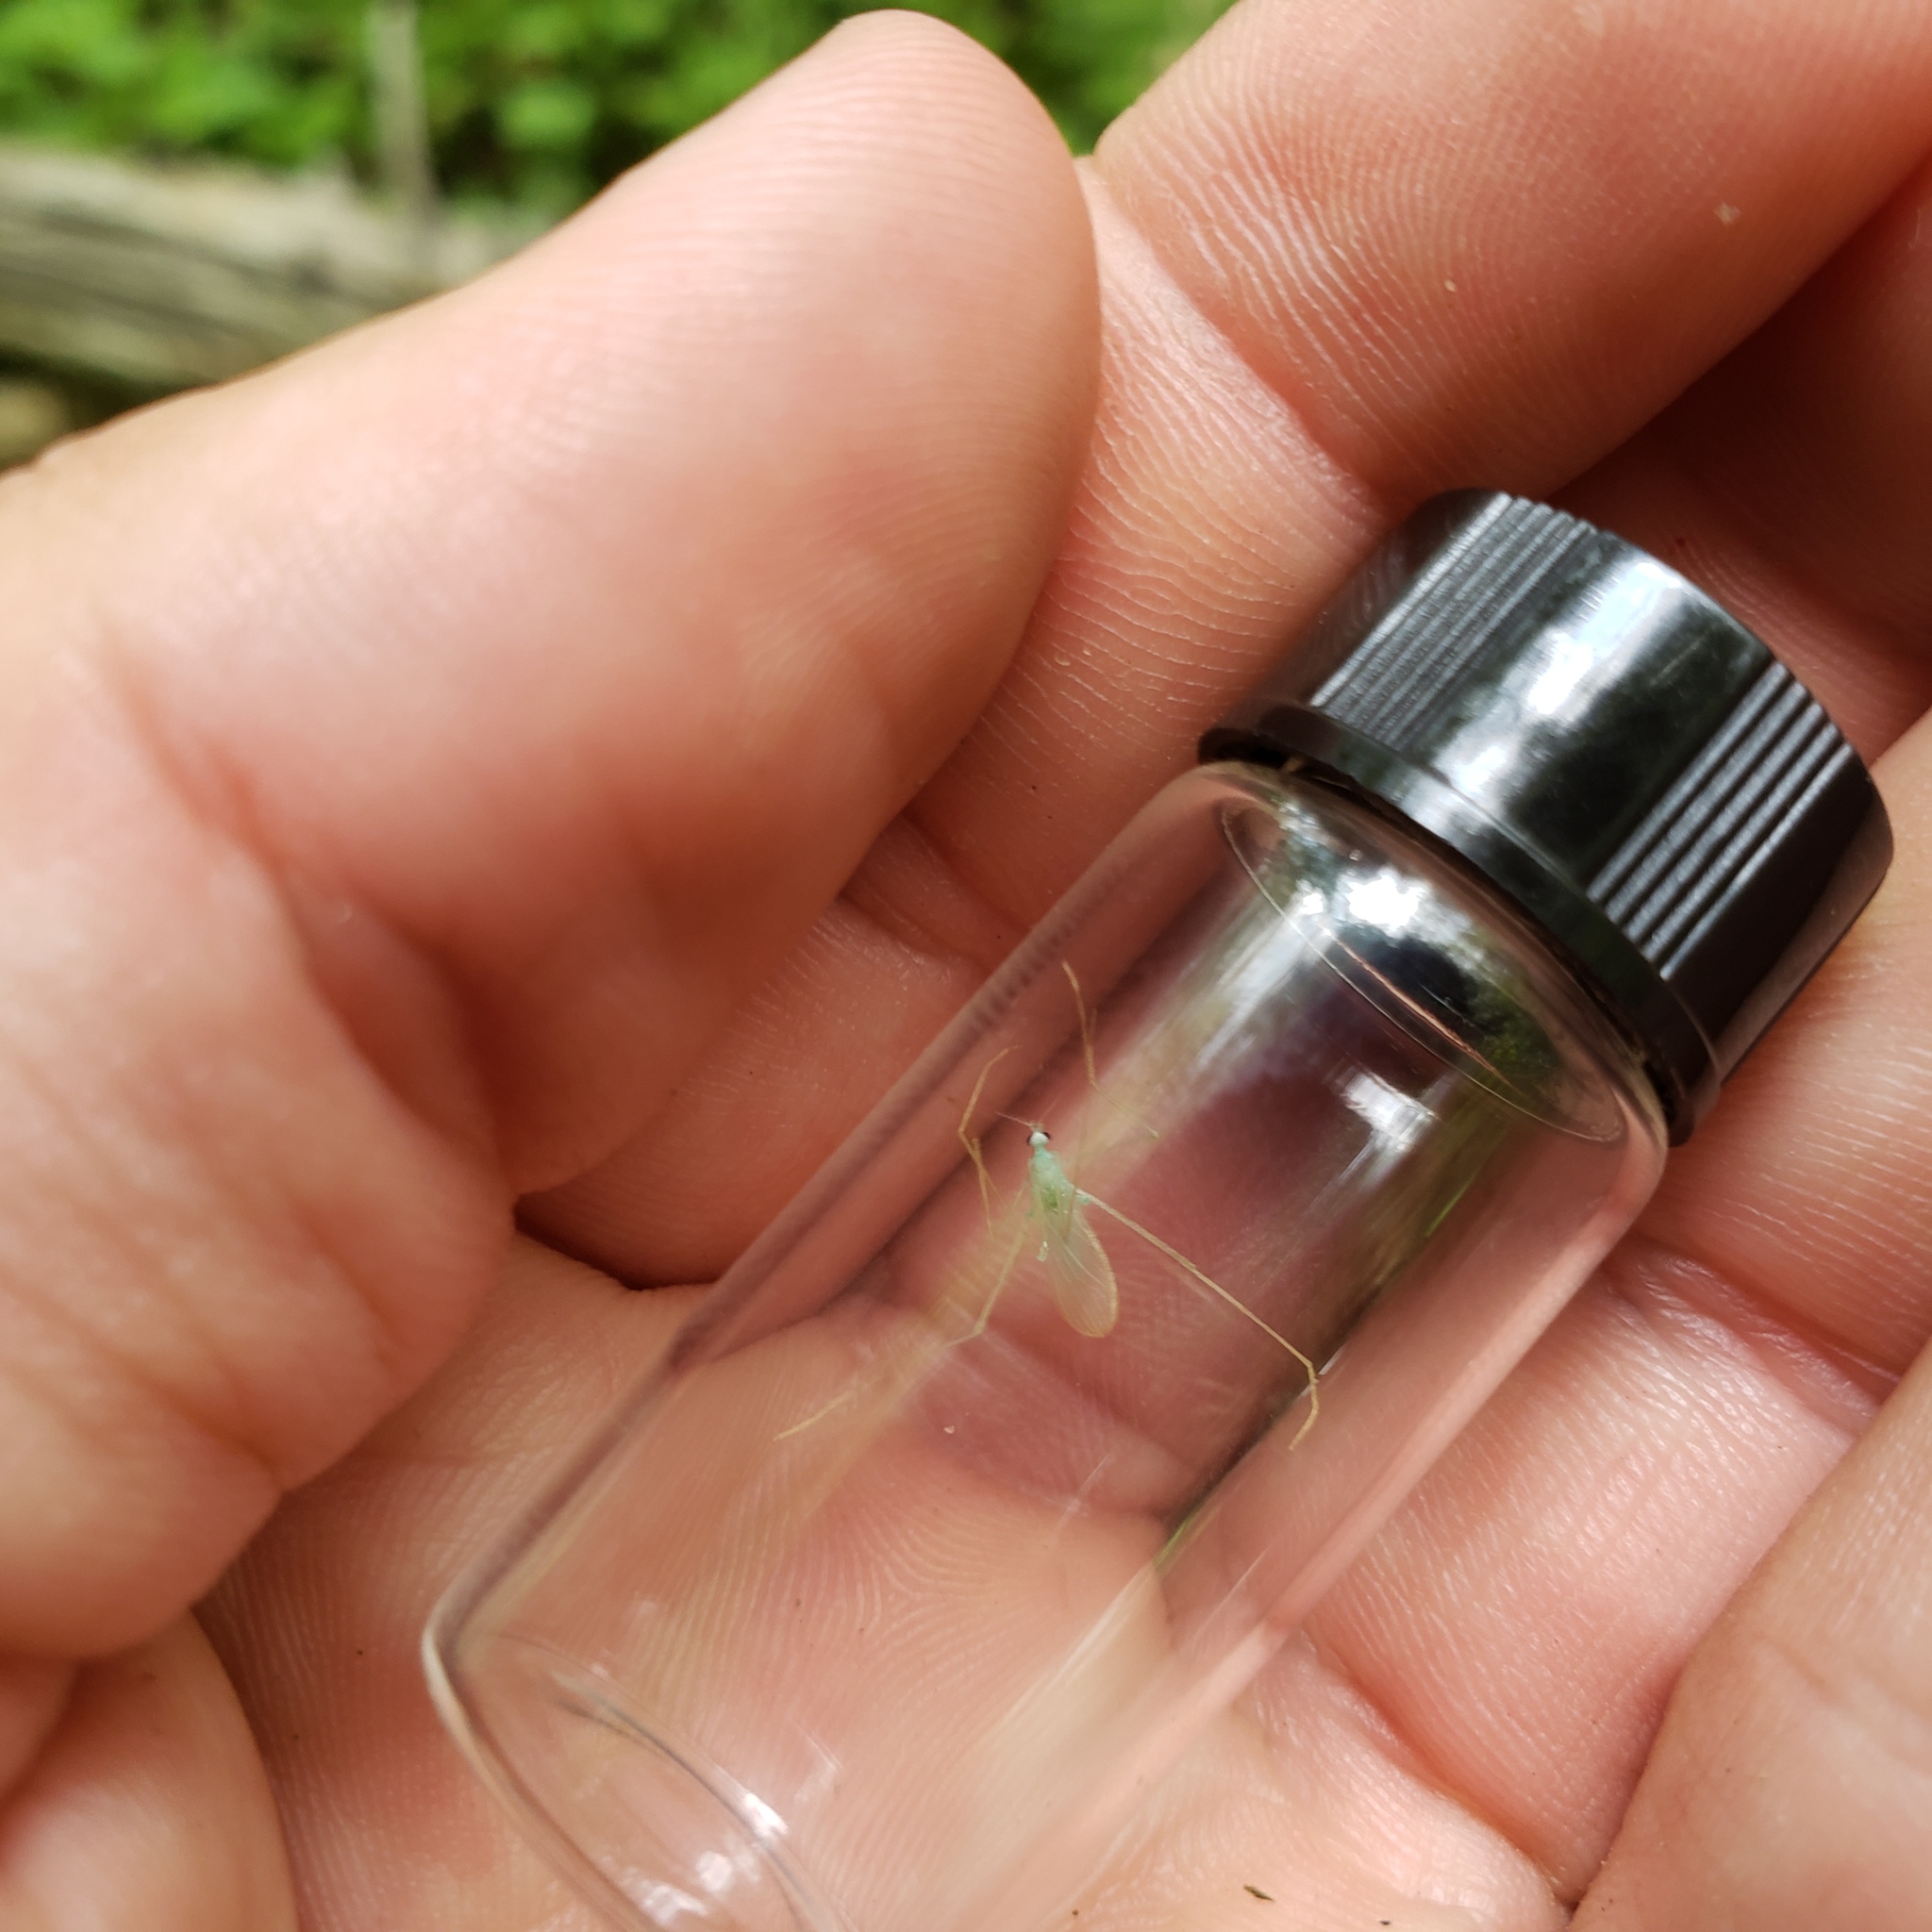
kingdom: Animalia
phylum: Arthropoda
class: Insecta
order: Diptera
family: Limoniidae
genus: Erioptera
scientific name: Erioptera
